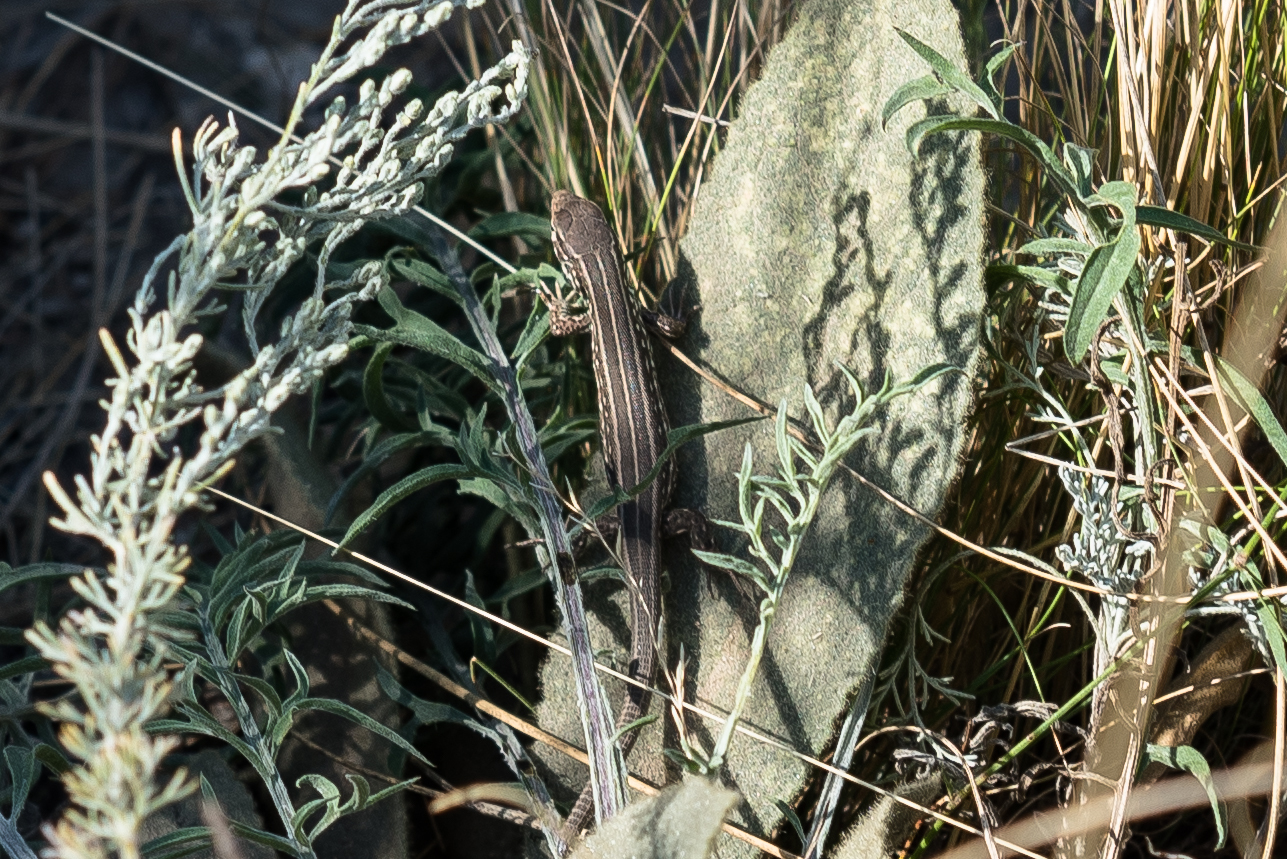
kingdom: Animalia
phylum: Chordata
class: Squamata
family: Lacertidae
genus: Lacerta
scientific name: Lacerta agilis
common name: Sand lizard
